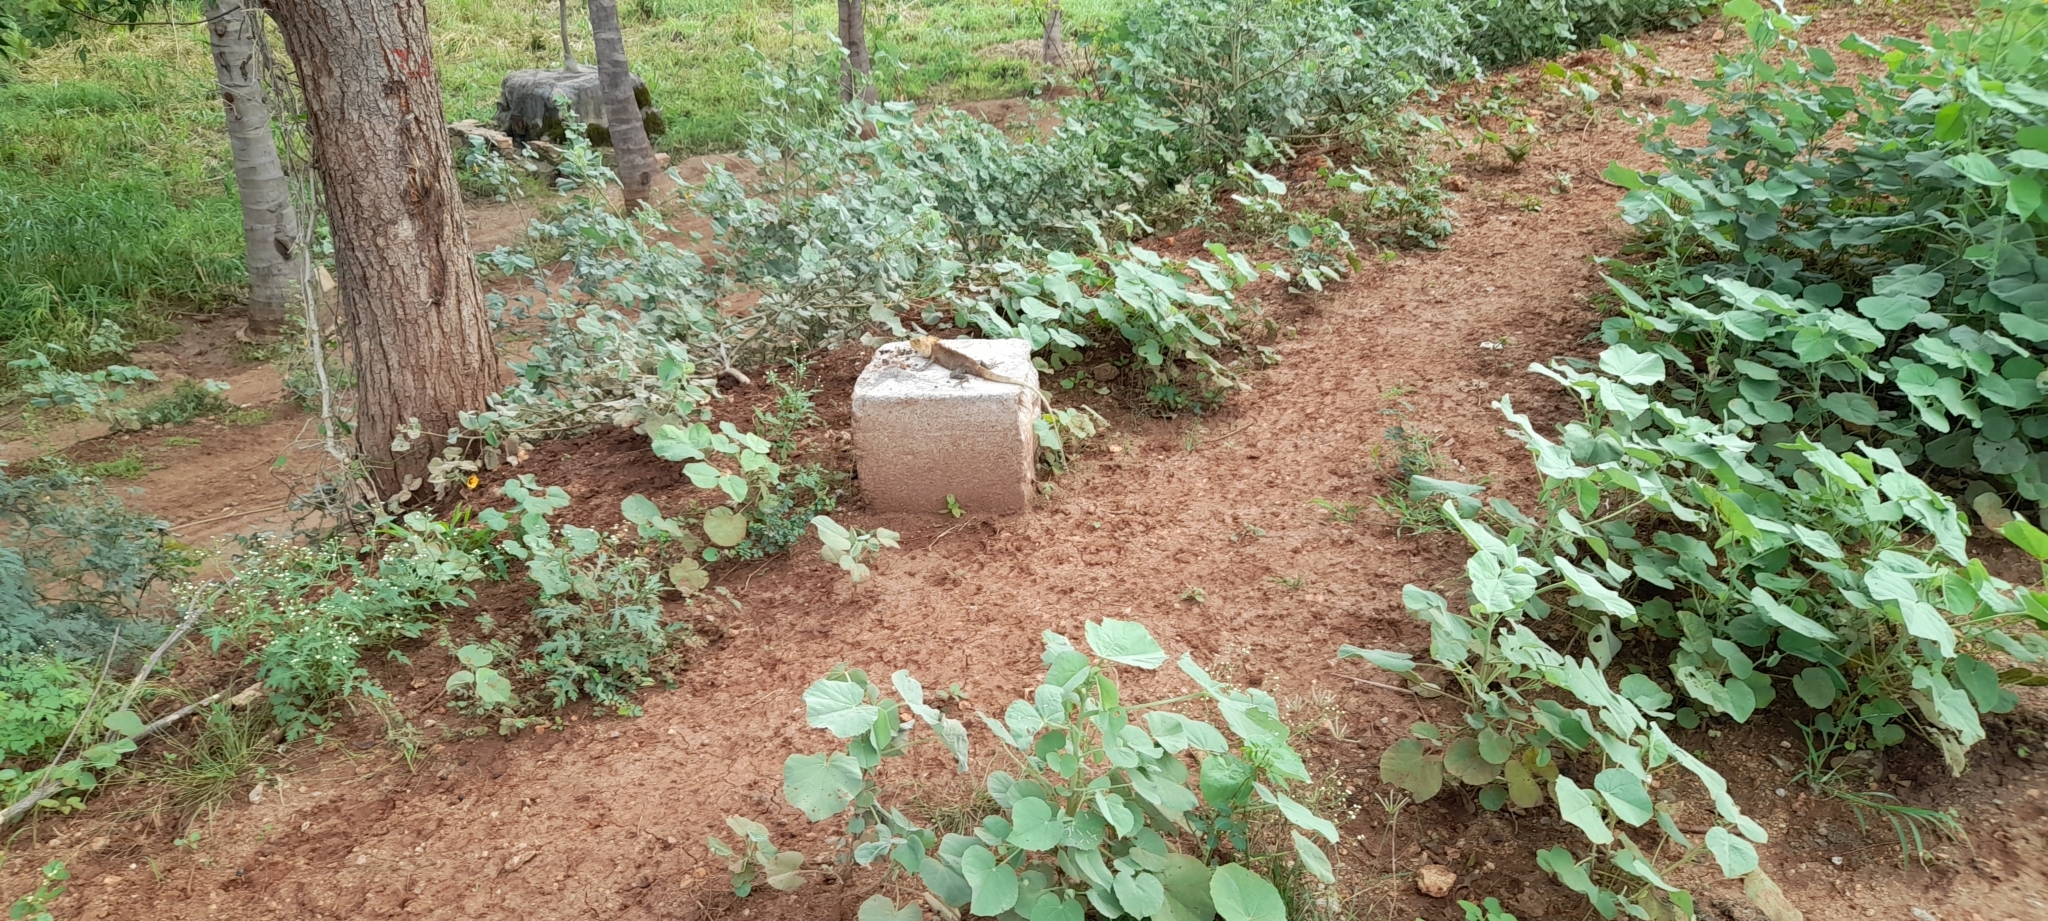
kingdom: Animalia
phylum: Chordata
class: Squamata
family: Agamidae
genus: Calotes
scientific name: Calotes versicolor
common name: Oriental garden lizard
